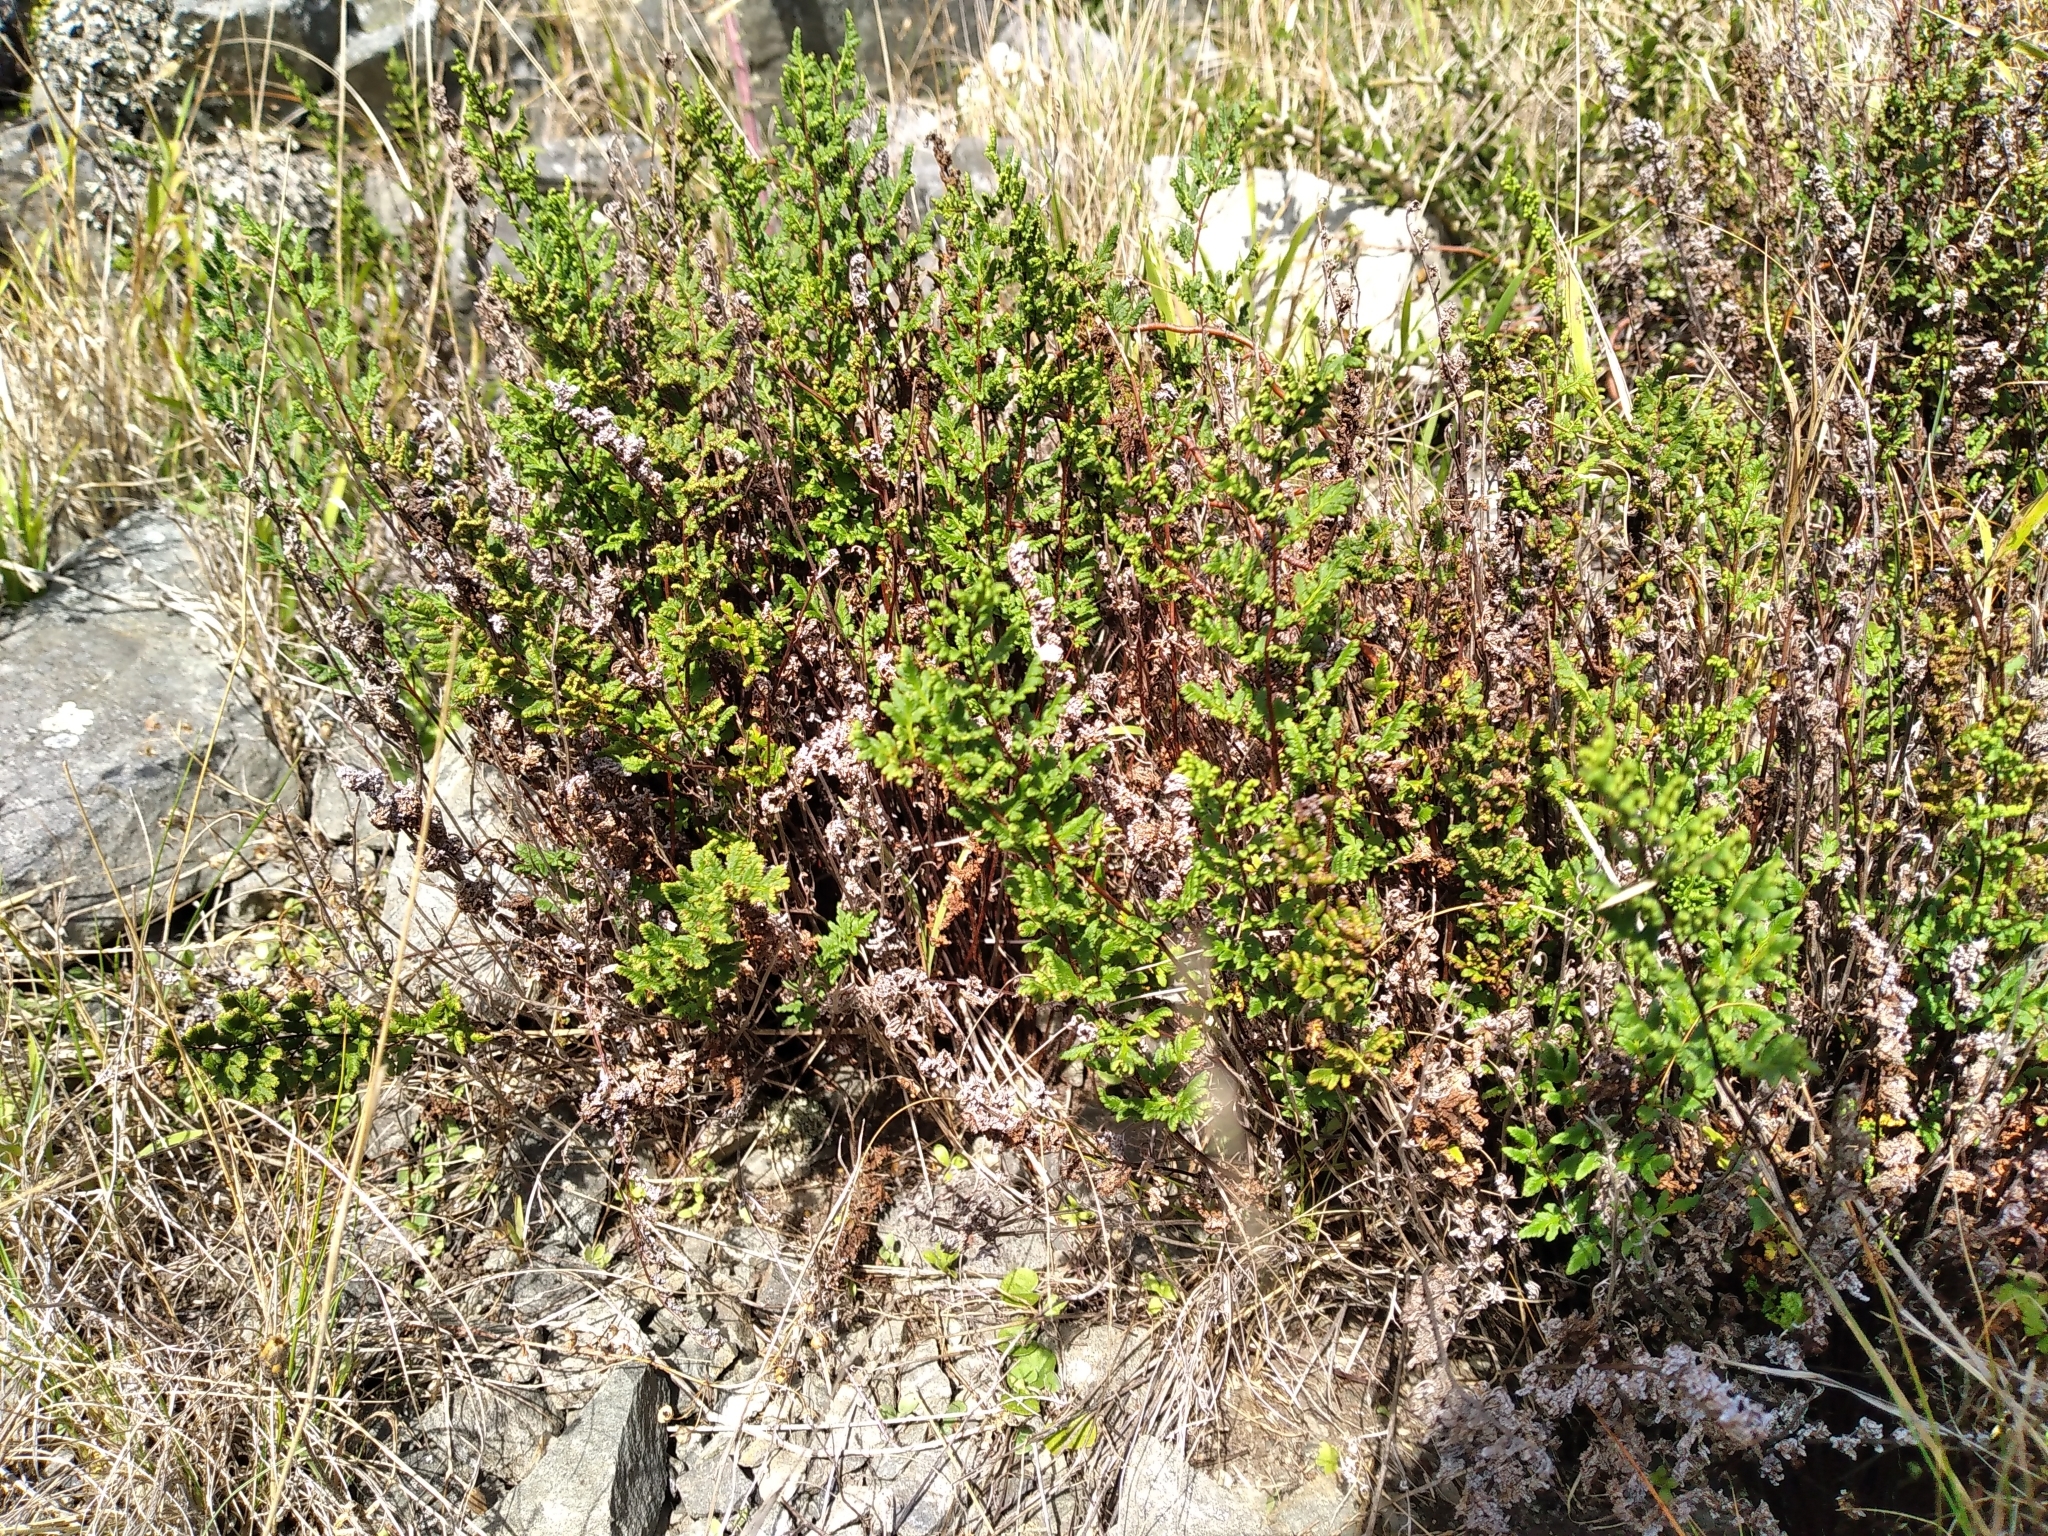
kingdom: Plantae
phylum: Tracheophyta
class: Polypodiopsida
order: Polypodiales
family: Pteridaceae
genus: Cheilanthes
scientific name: Cheilanthes sieberi
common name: Mulga fern
